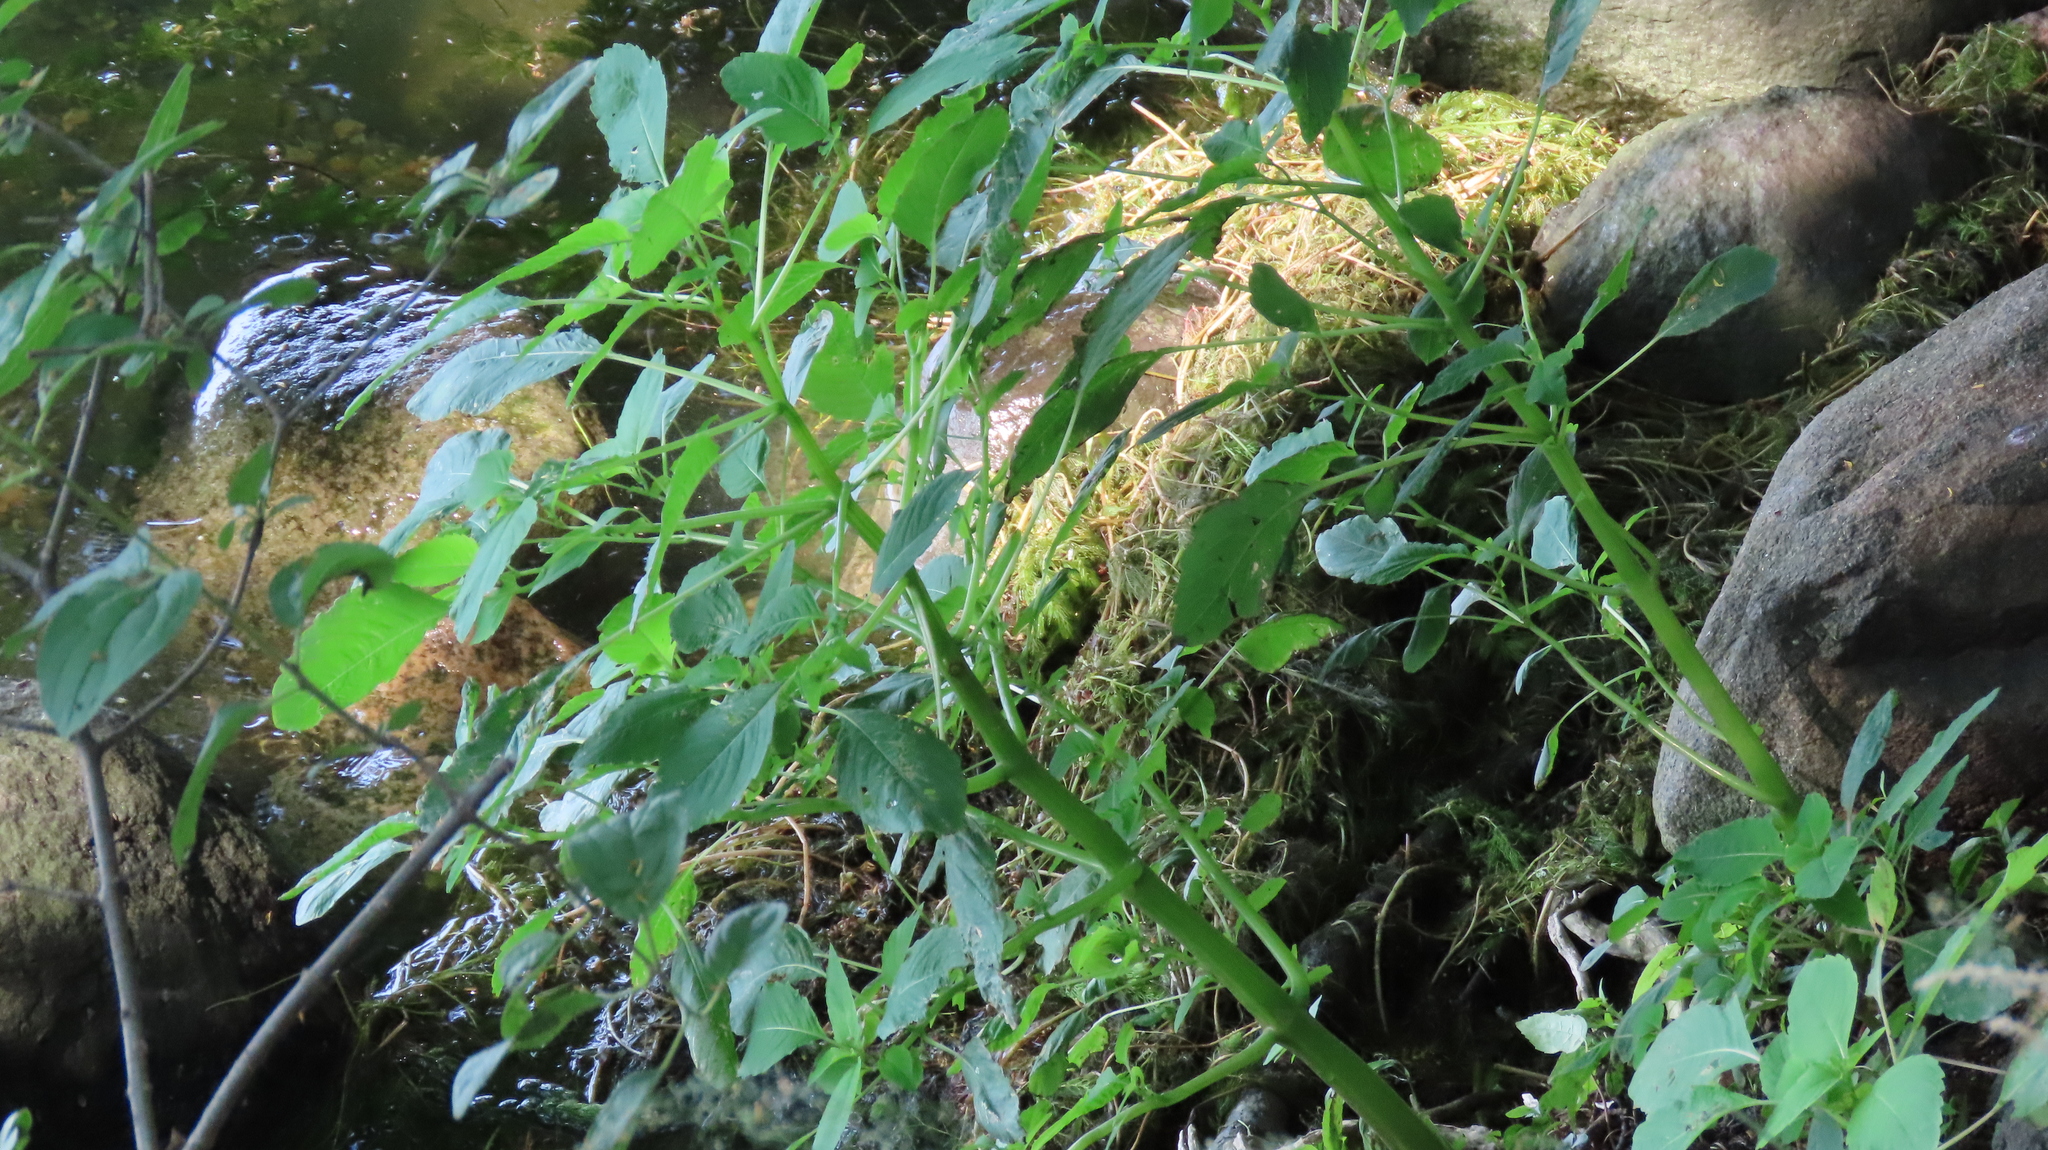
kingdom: Plantae
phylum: Tracheophyta
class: Magnoliopsida
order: Ericales
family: Balsaminaceae
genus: Impatiens
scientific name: Impatiens capensis
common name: Orange balsam
